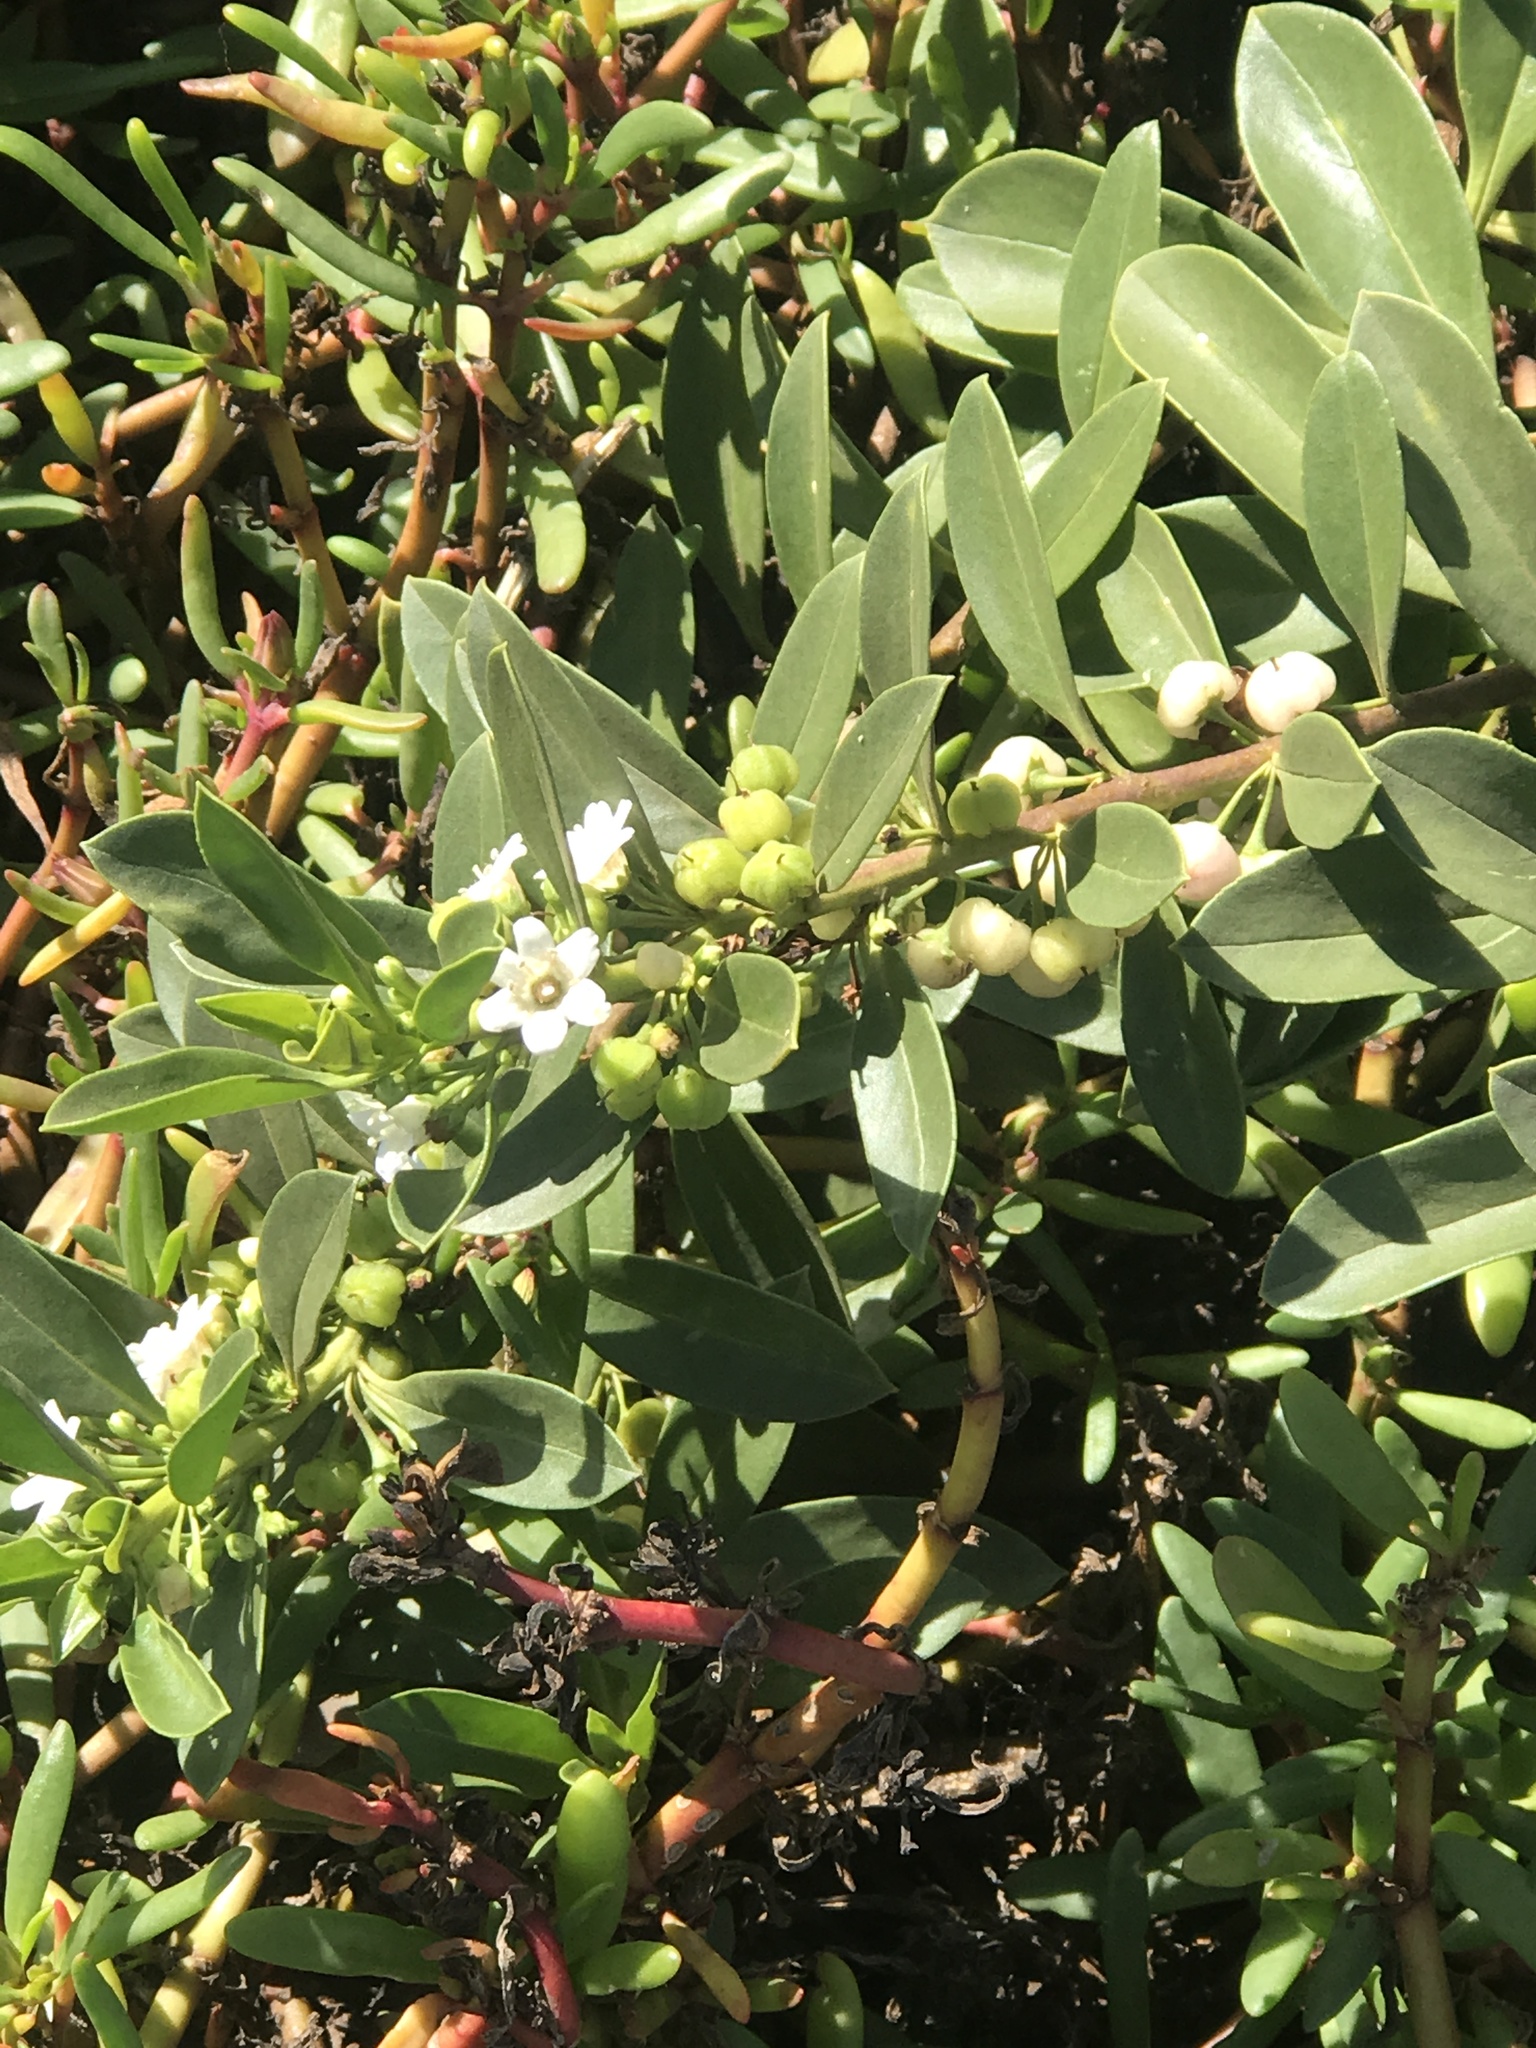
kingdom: Plantae
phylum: Tracheophyta
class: Magnoliopsida
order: Lamiales
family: Scrophulariaceae
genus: Myoporum
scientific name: Myoporum sandwicense
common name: Bastard-sandalwood
